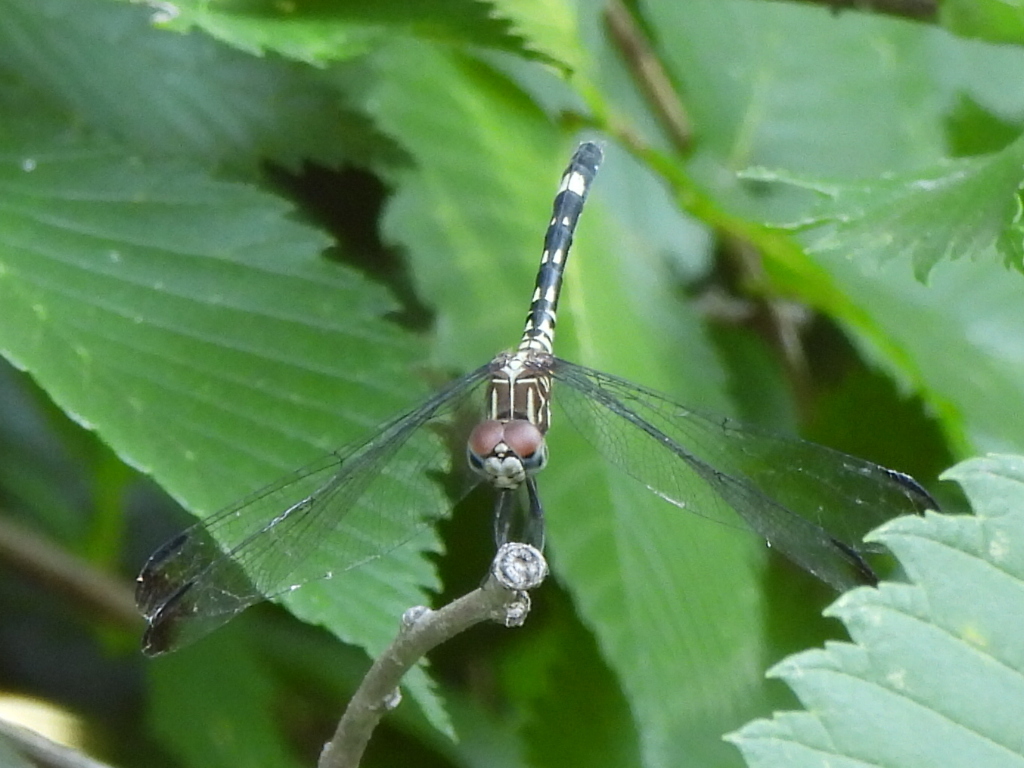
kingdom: Animalia
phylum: Arthropoda
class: Insecta
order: Odonata
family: Libellulidae
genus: Dythemis
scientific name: Dythemis velox
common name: Swift setwing
